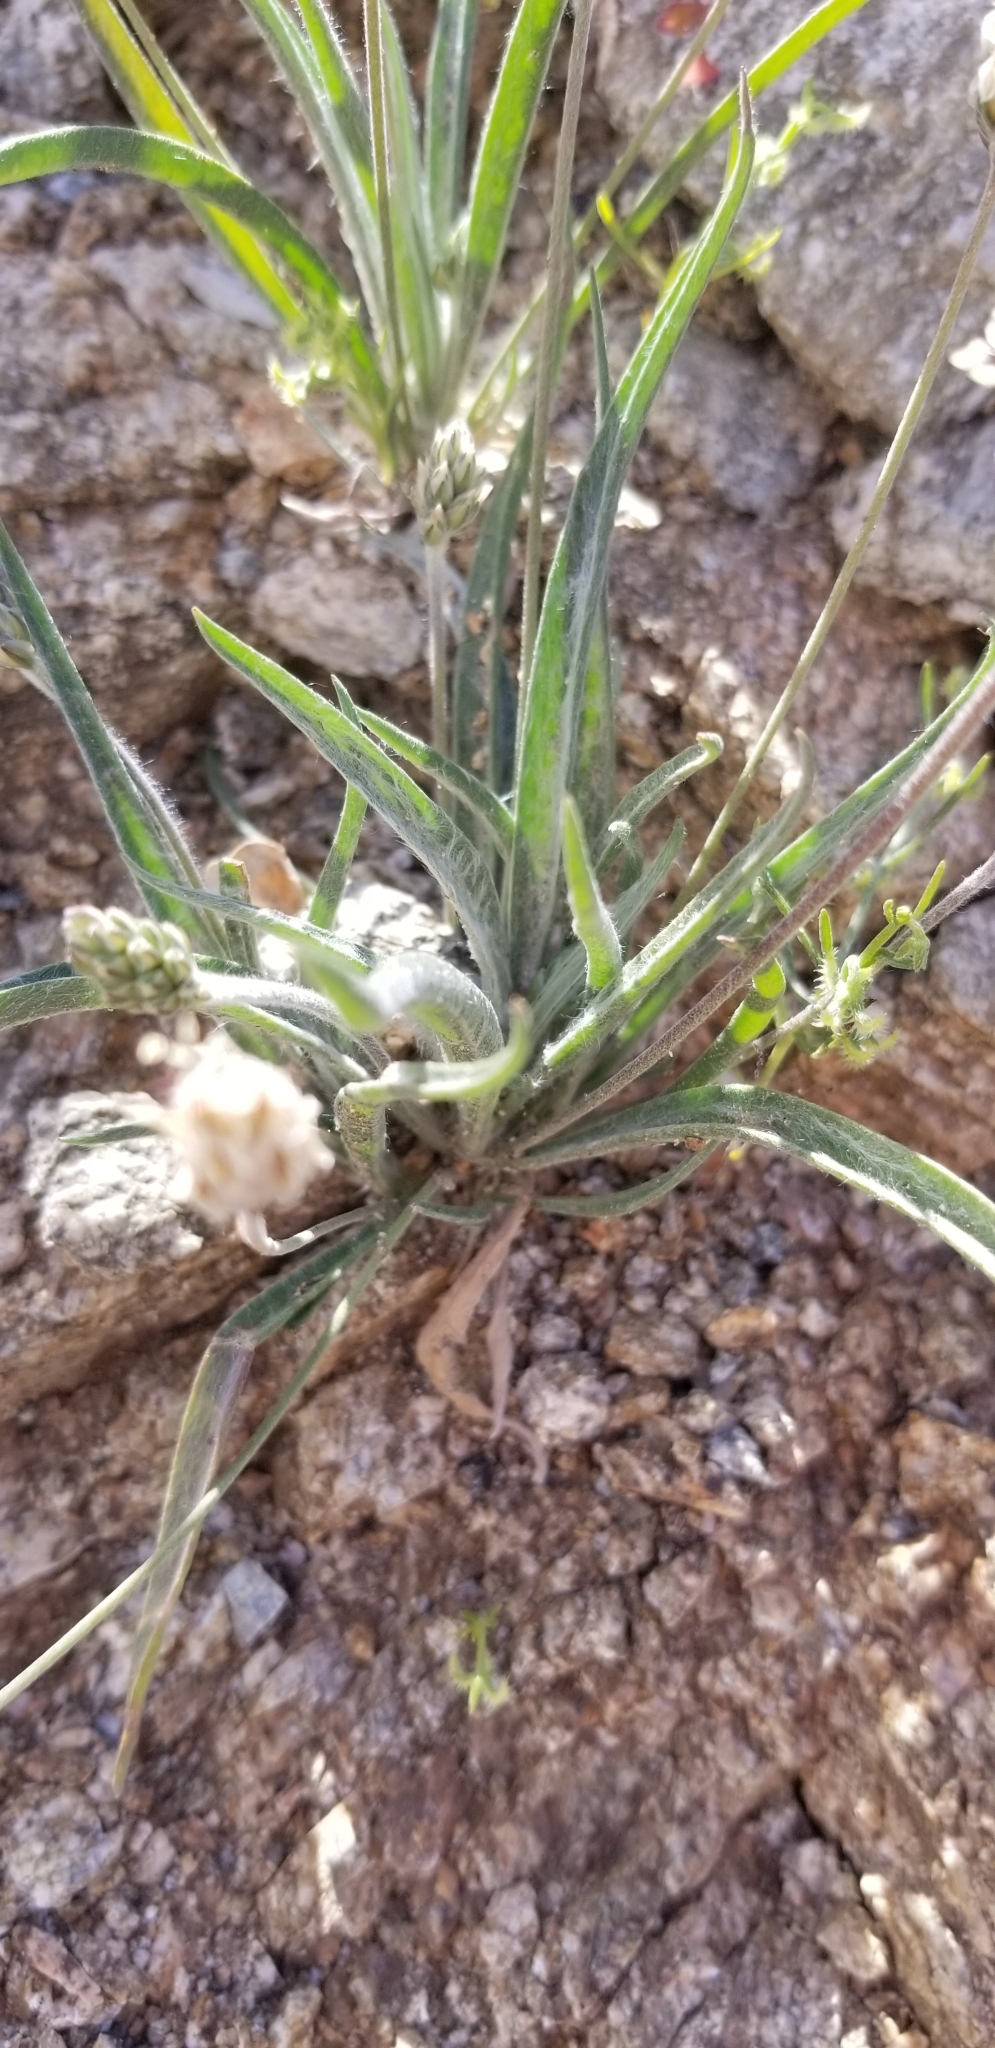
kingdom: Plantae
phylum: Tracheophyta
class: Magnoliopsida
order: Lamiales
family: Plantaginaceae
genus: Plantago
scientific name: Plantago ovata
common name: Blond plantain
